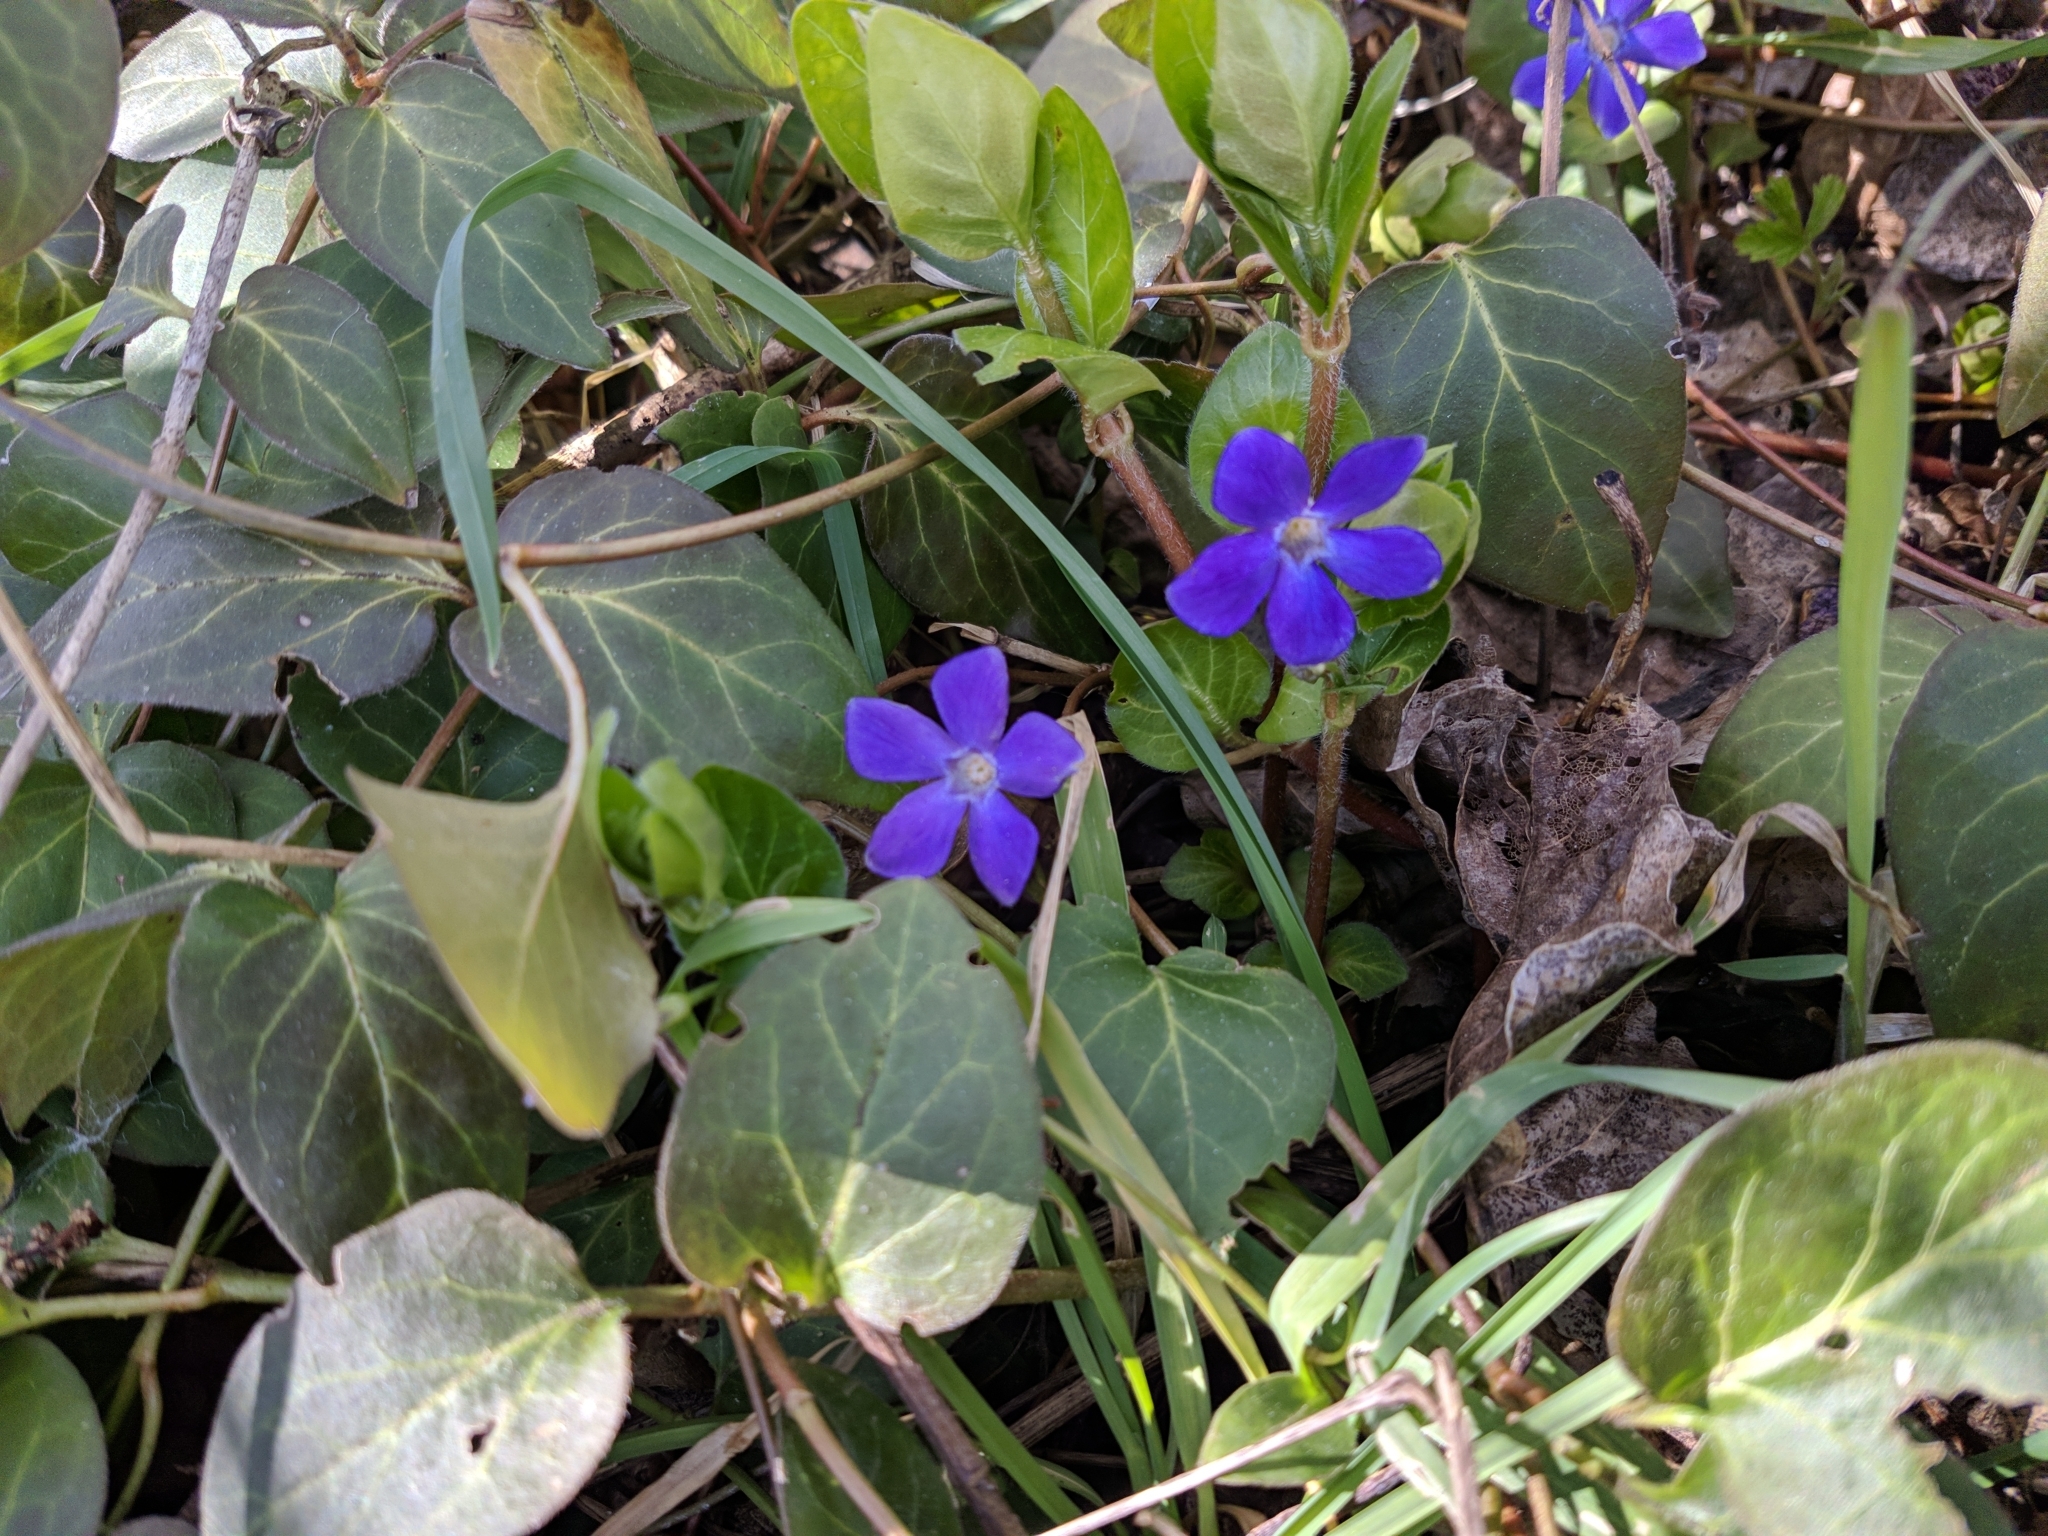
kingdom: Plantae
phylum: Tracheophyta
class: Magnoliopsida
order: Gentianales
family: Apocynaceae
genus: Vinca
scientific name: Vinca major
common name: Greater periwinkle
